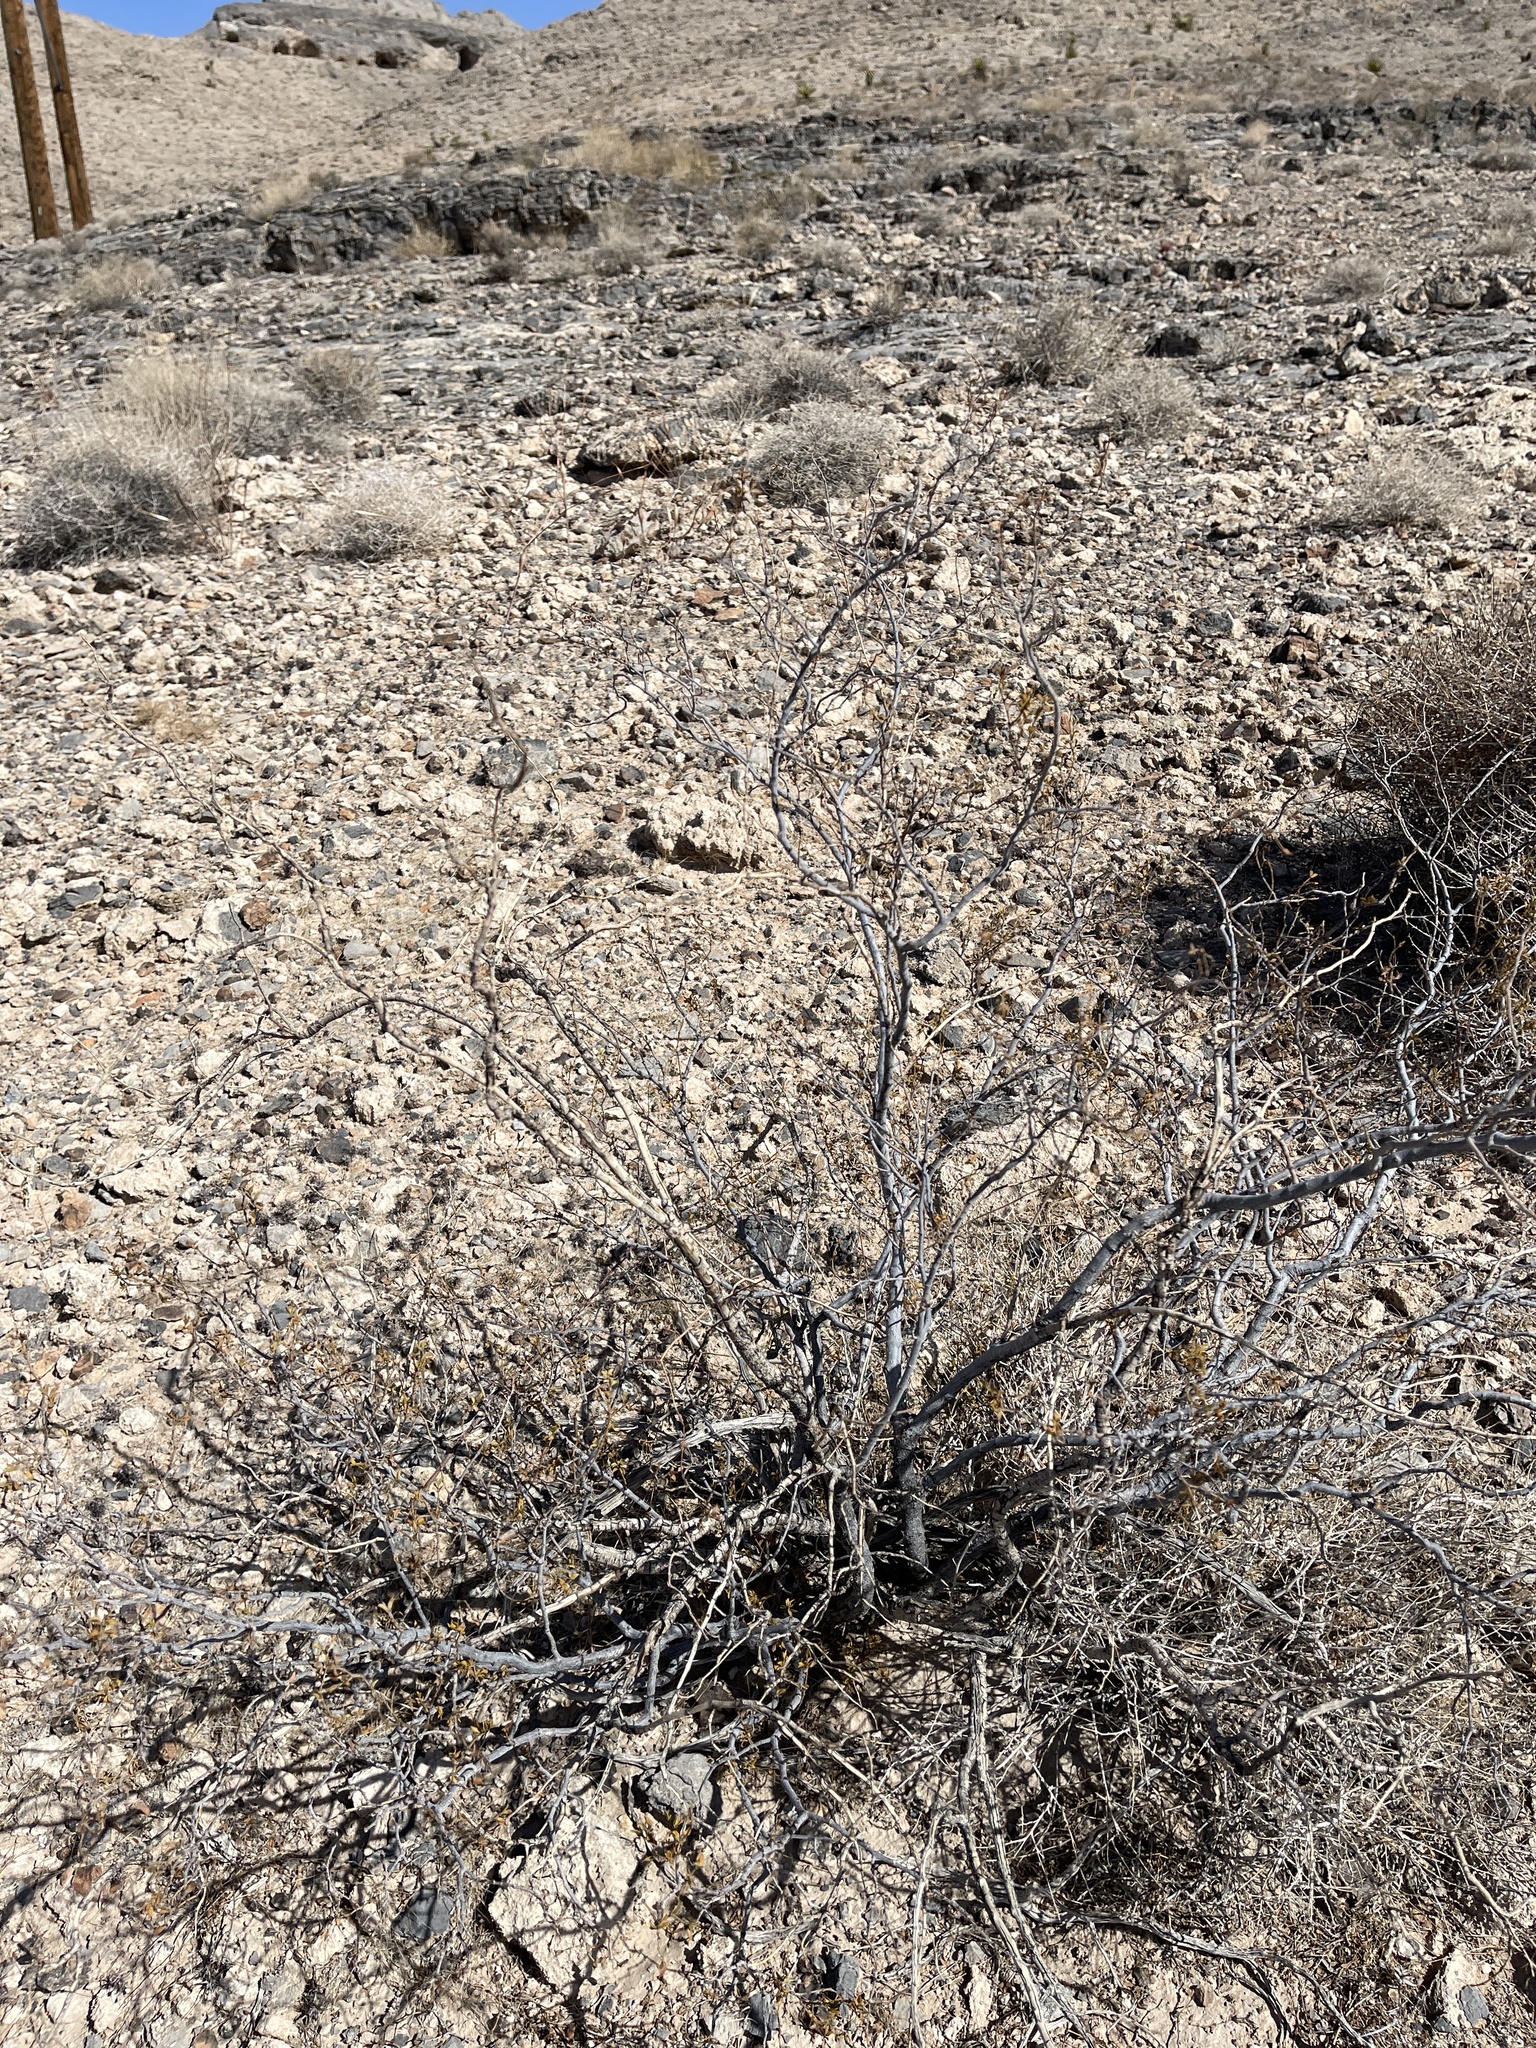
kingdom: Plantae
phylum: Tracheophyta
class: Magnoliopsida
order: Zygophyllales
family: Zygophyllaceae
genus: Larrea
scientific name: Larrea tridentata
